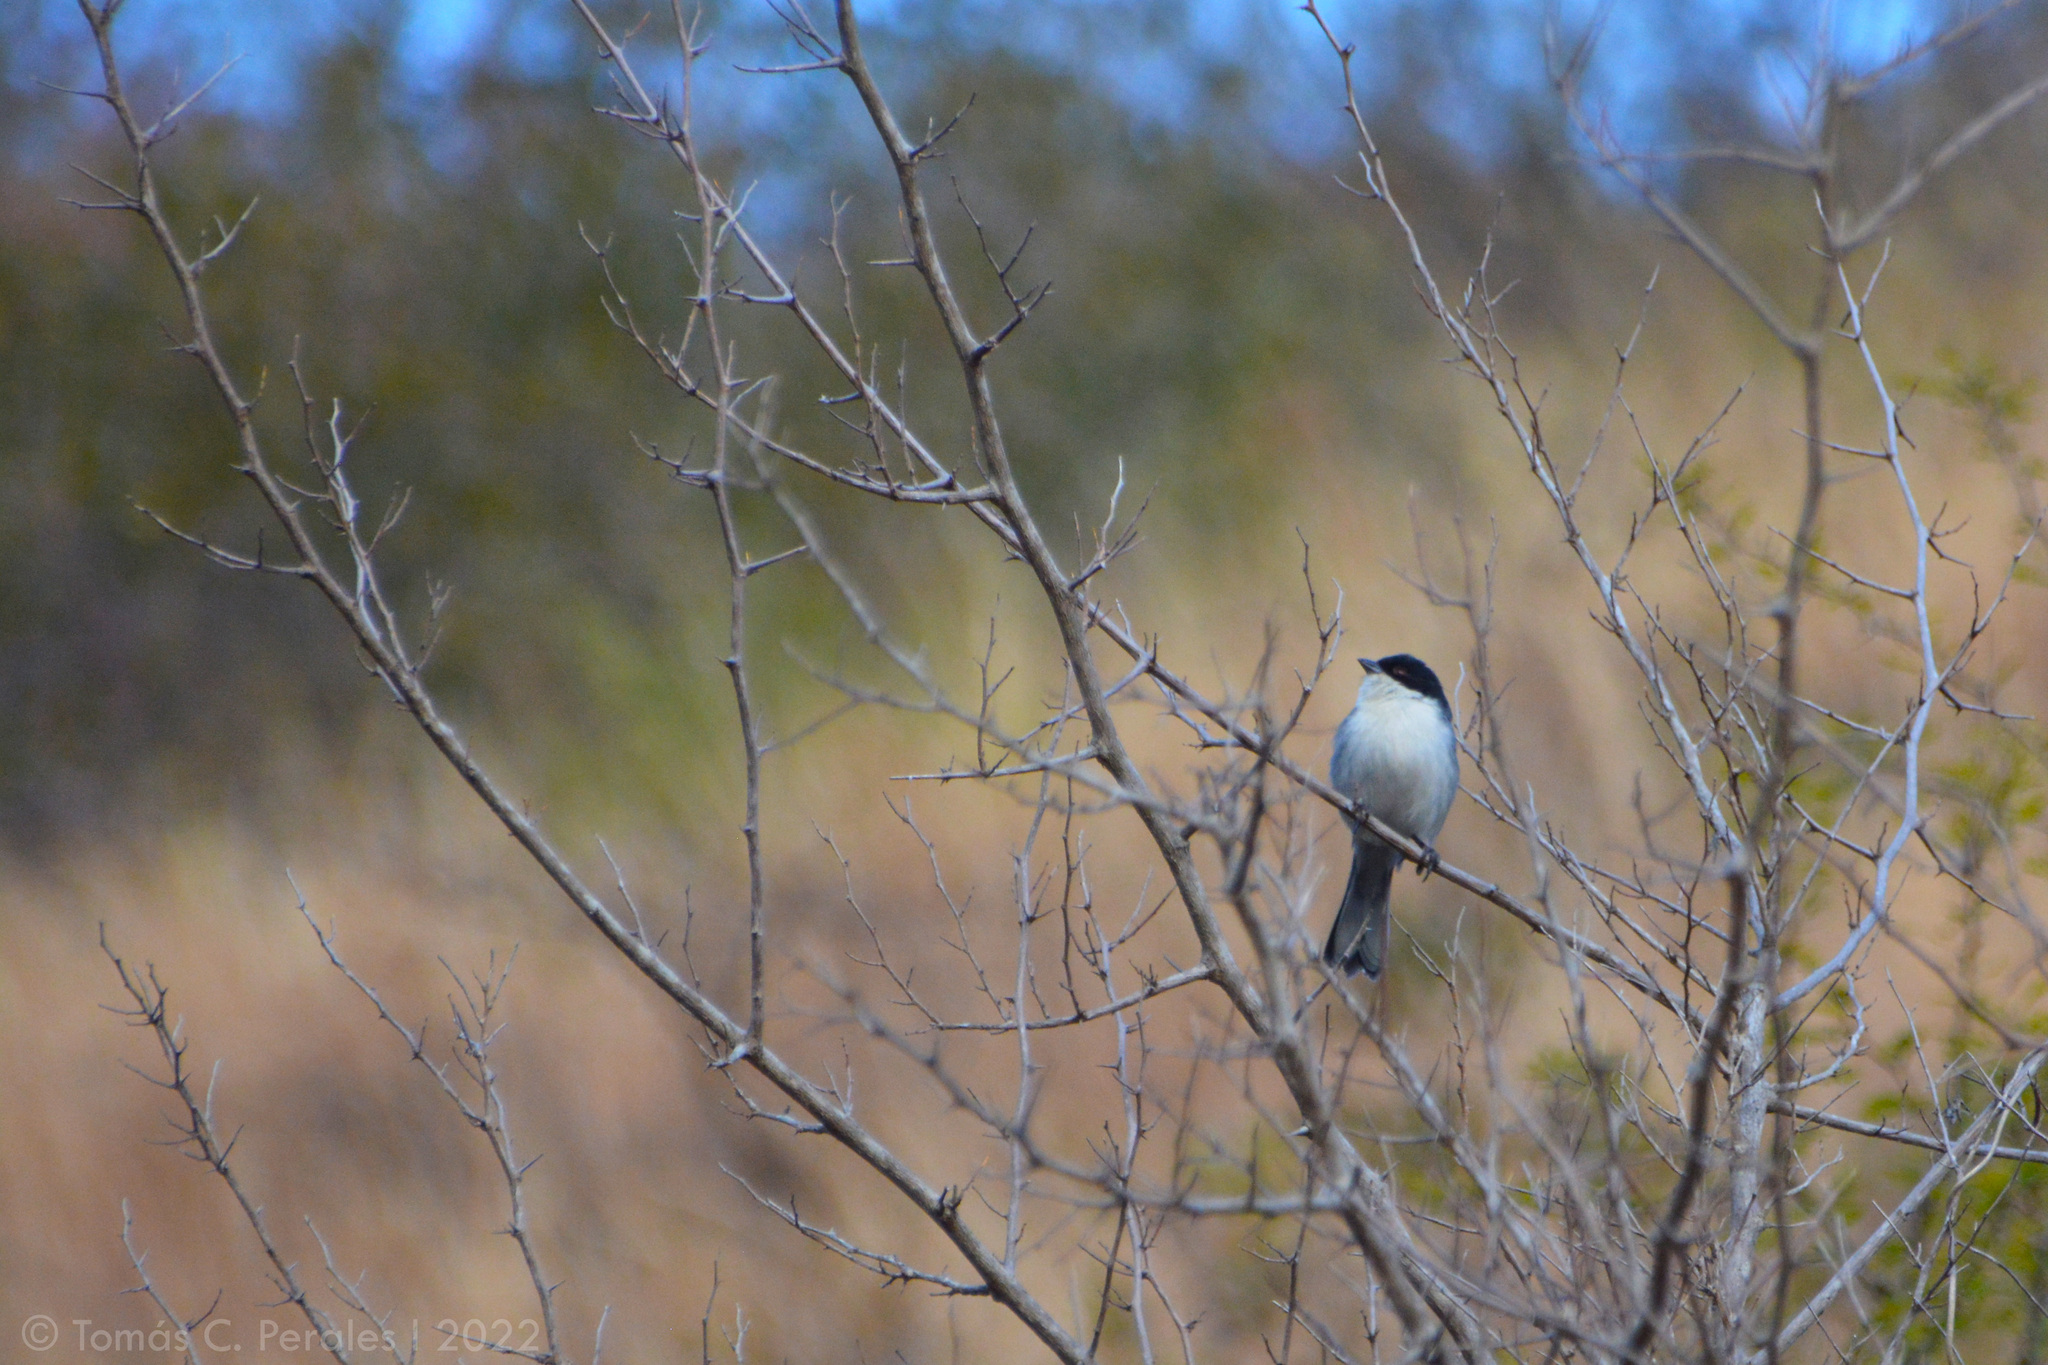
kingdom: Animalia
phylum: Chordata
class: Aves
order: Passeriformes
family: Thraupidae
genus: Microspingus
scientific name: Microspingus melanoleucus
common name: Black-capped warbling-finch
